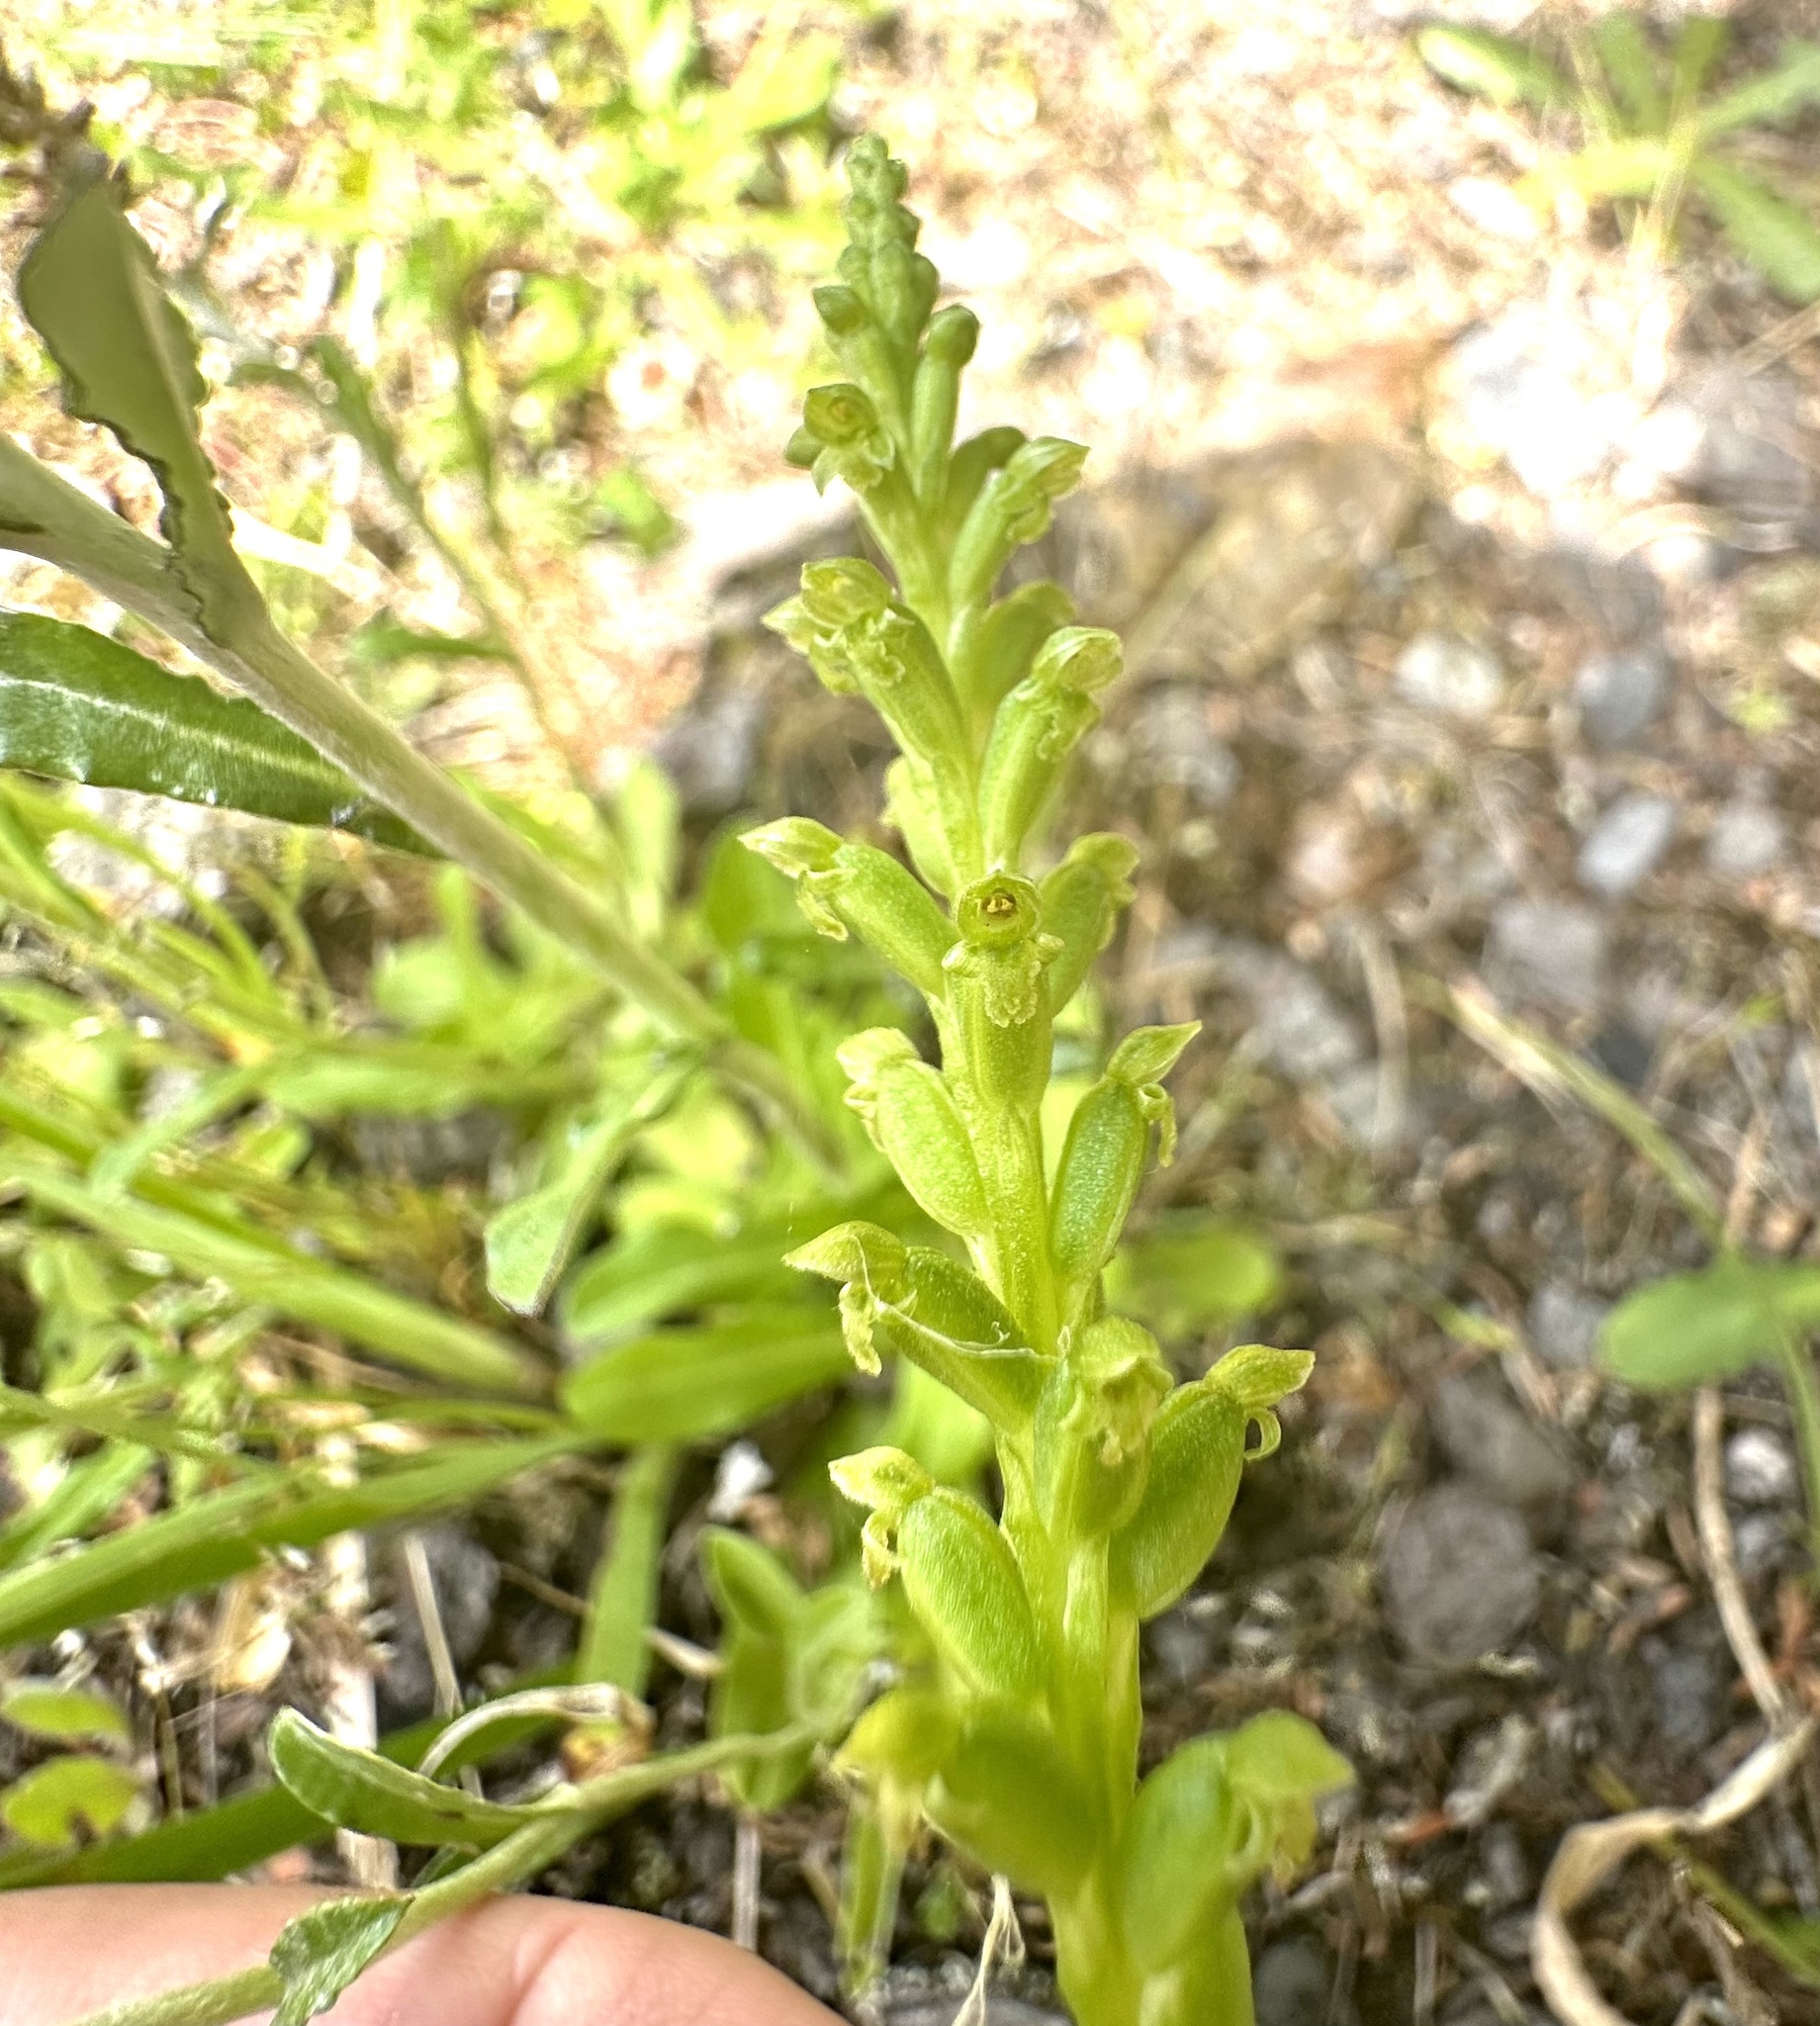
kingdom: Plantae
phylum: Tracheophyta
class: Liliopsida
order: Asparagales
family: Orchidaceae
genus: Microtis
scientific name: Microtis unifolia
